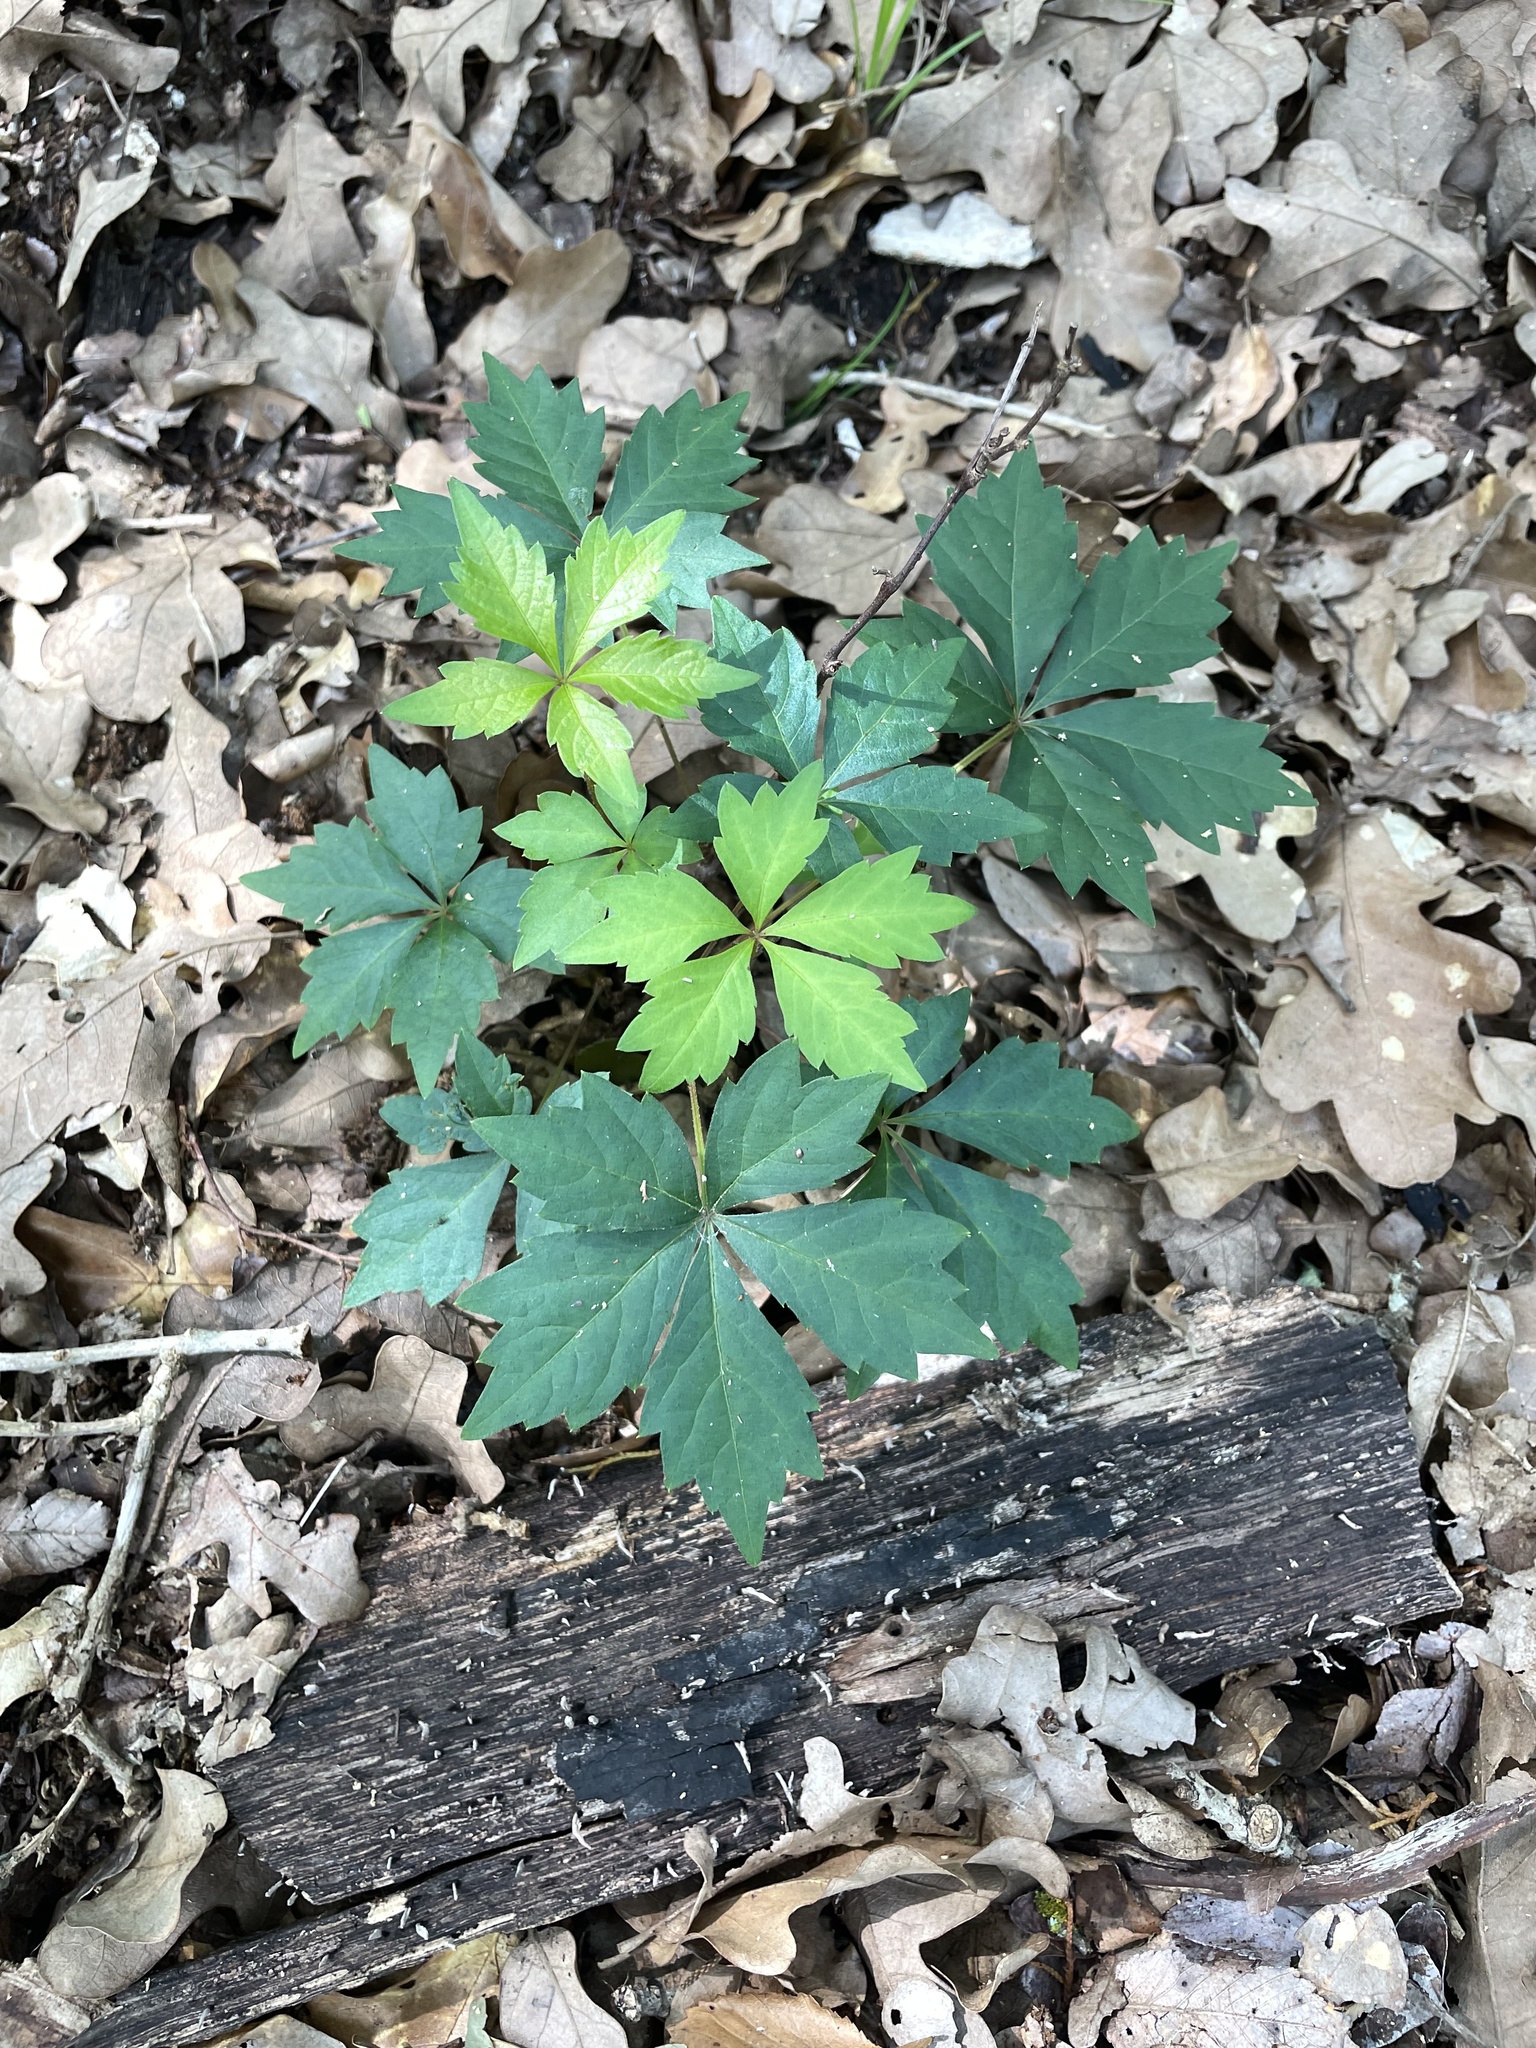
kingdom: Plantae
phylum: Tracheophyta
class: Magnoliopsida
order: Vitales
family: Vitaceae
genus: Parthenocissus
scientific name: Parthenocissus quinquefolia
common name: Virginia-creeper
